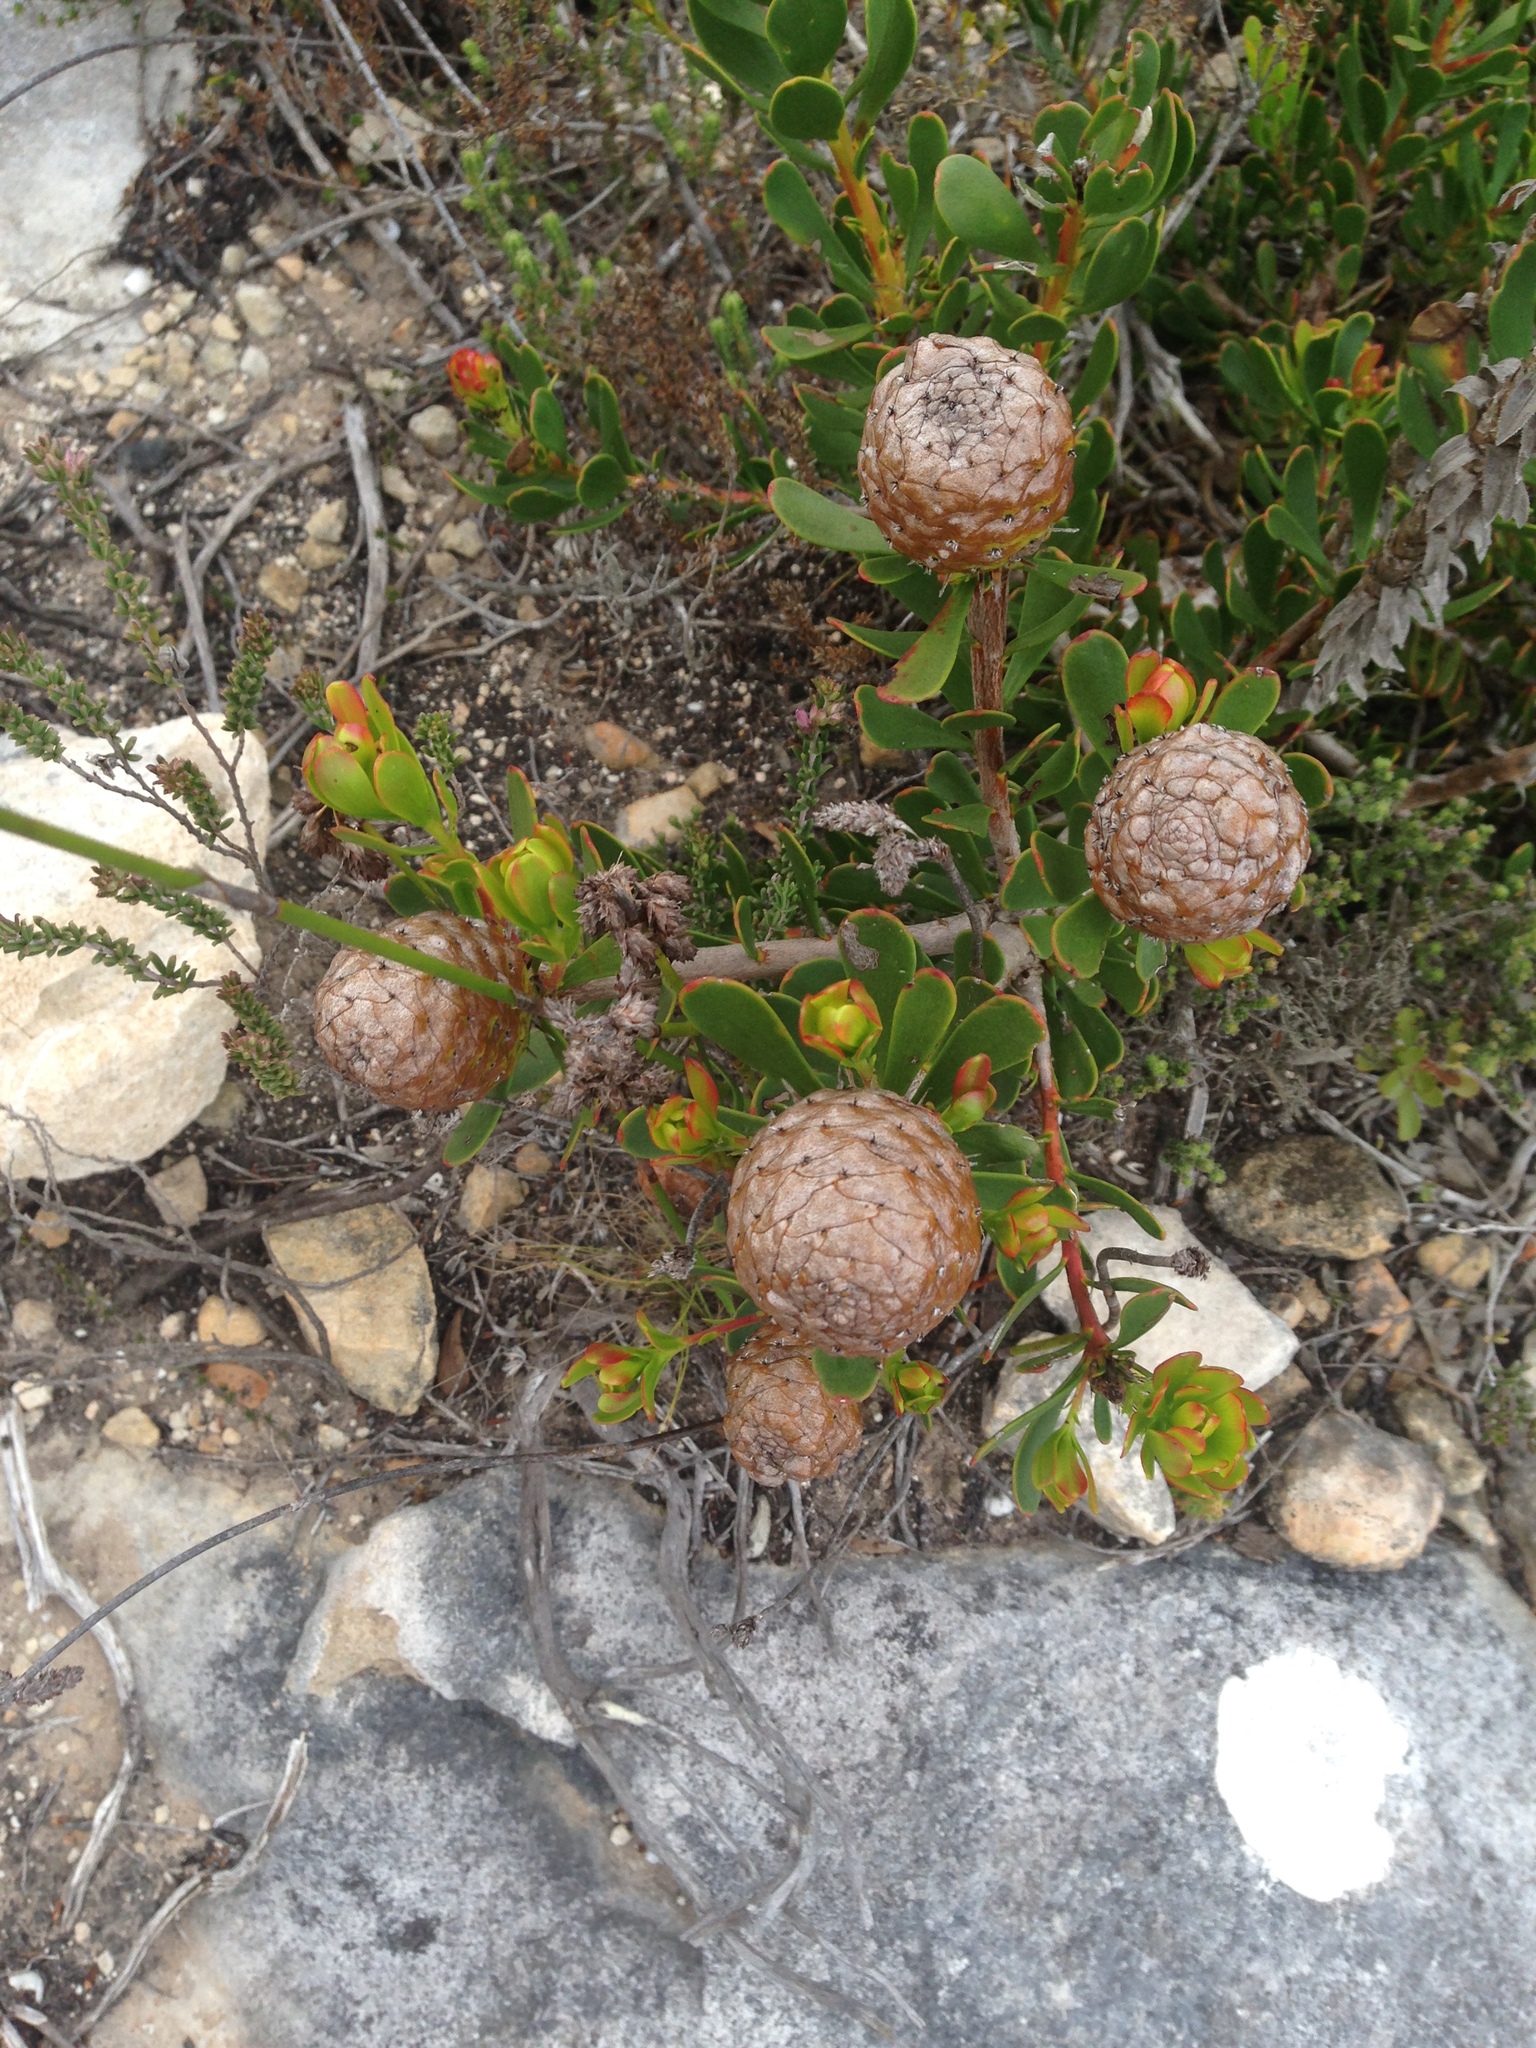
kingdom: Plantae
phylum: Tracheophyta
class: Magnoliopsida
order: Proteales
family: Proteaceae
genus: Leucadendron
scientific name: Leucadendron muirii
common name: Silver-ball conebush
